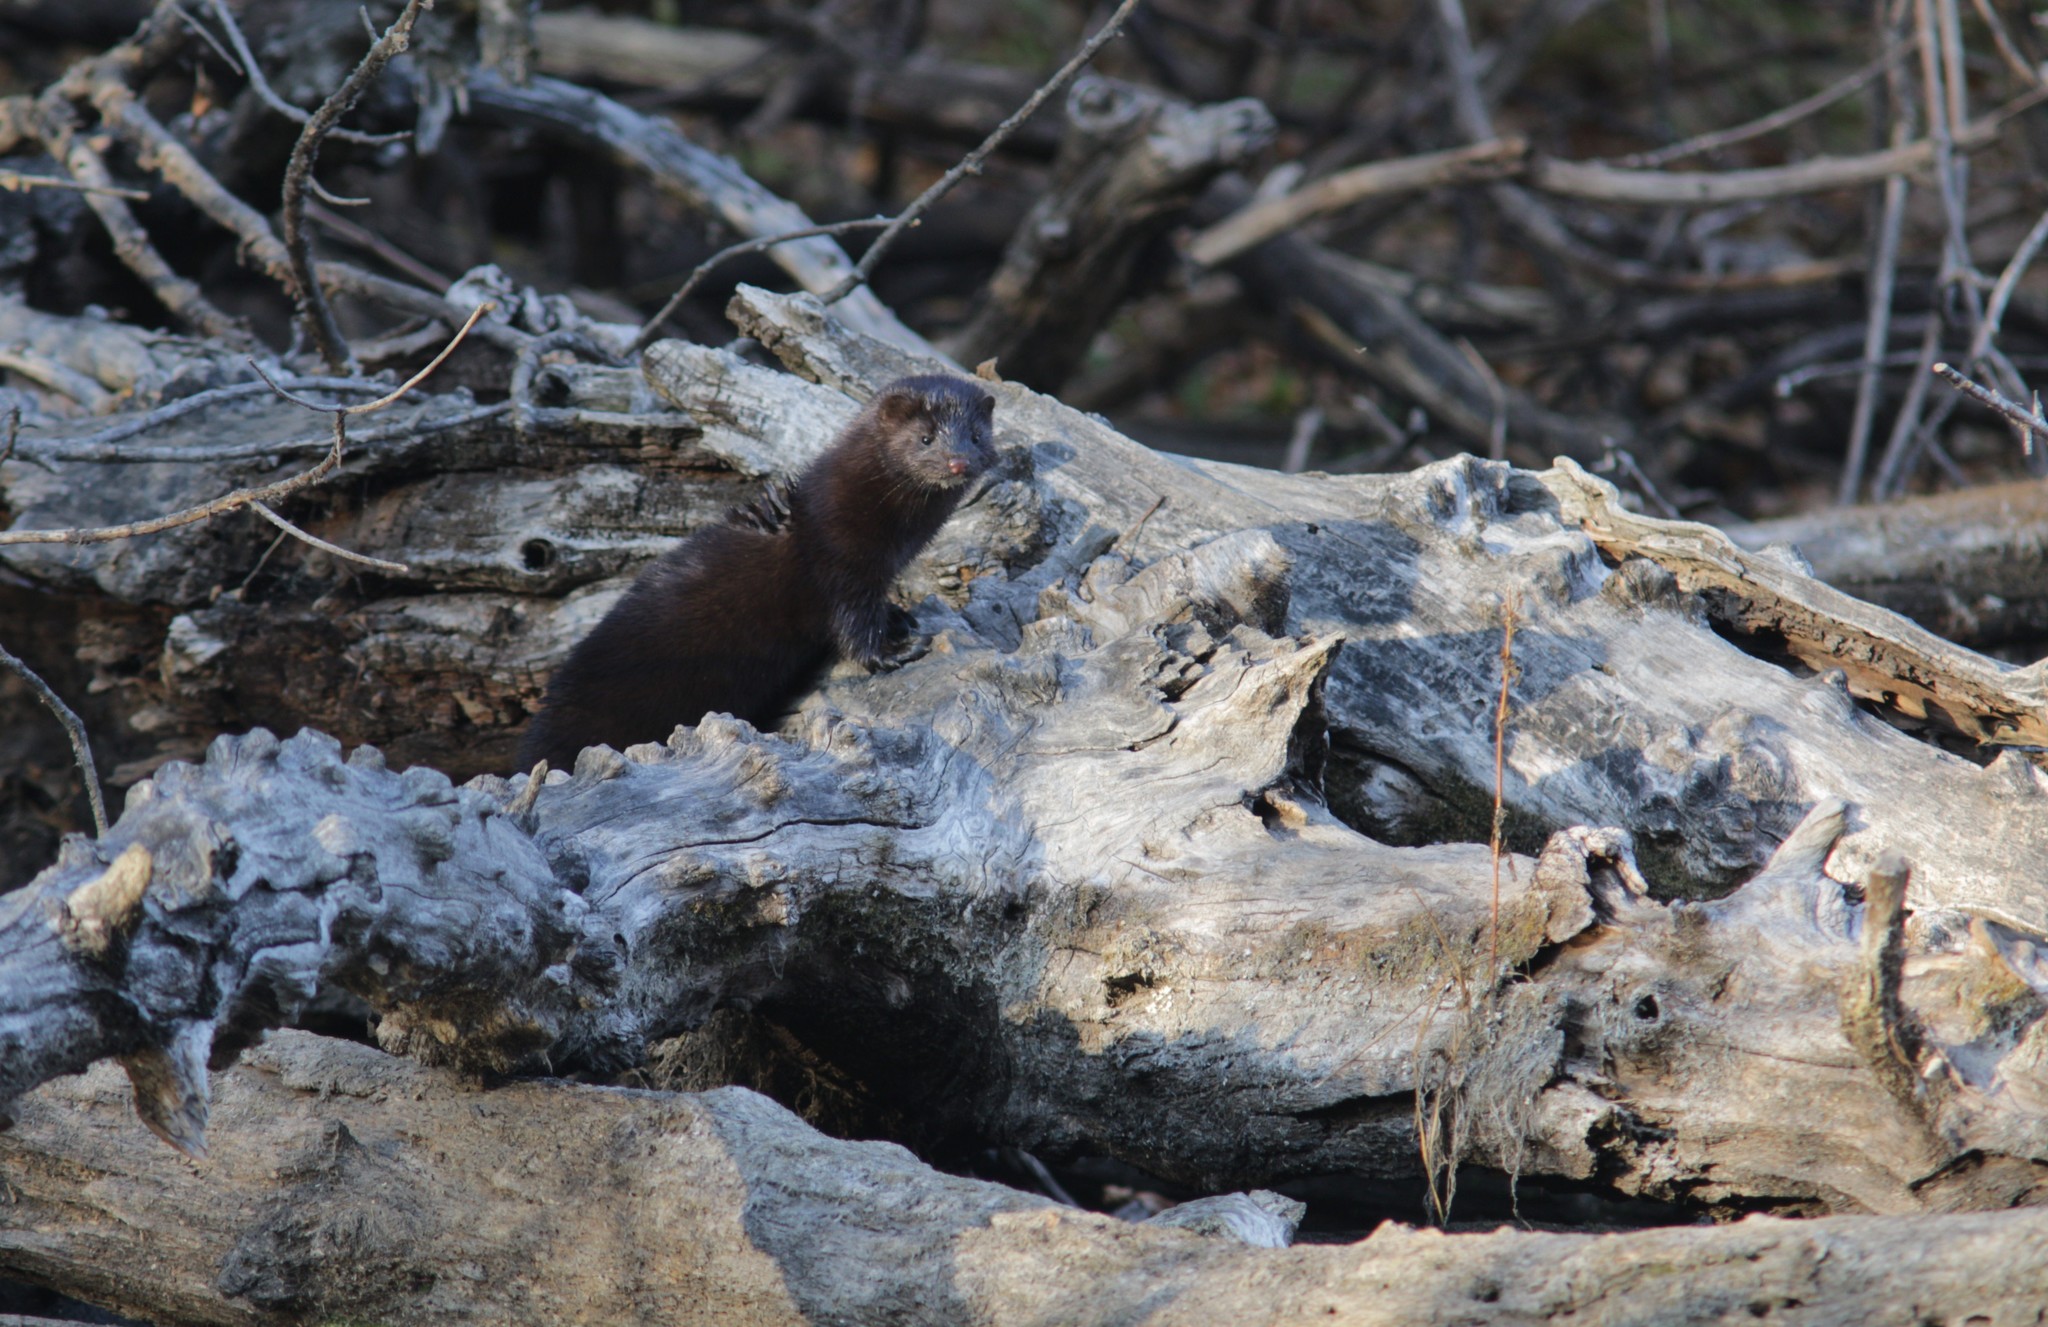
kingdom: Animalia
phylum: Chordata
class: Mammalia
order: Carnivora
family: Mustelidae
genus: Mustela
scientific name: Mustela
